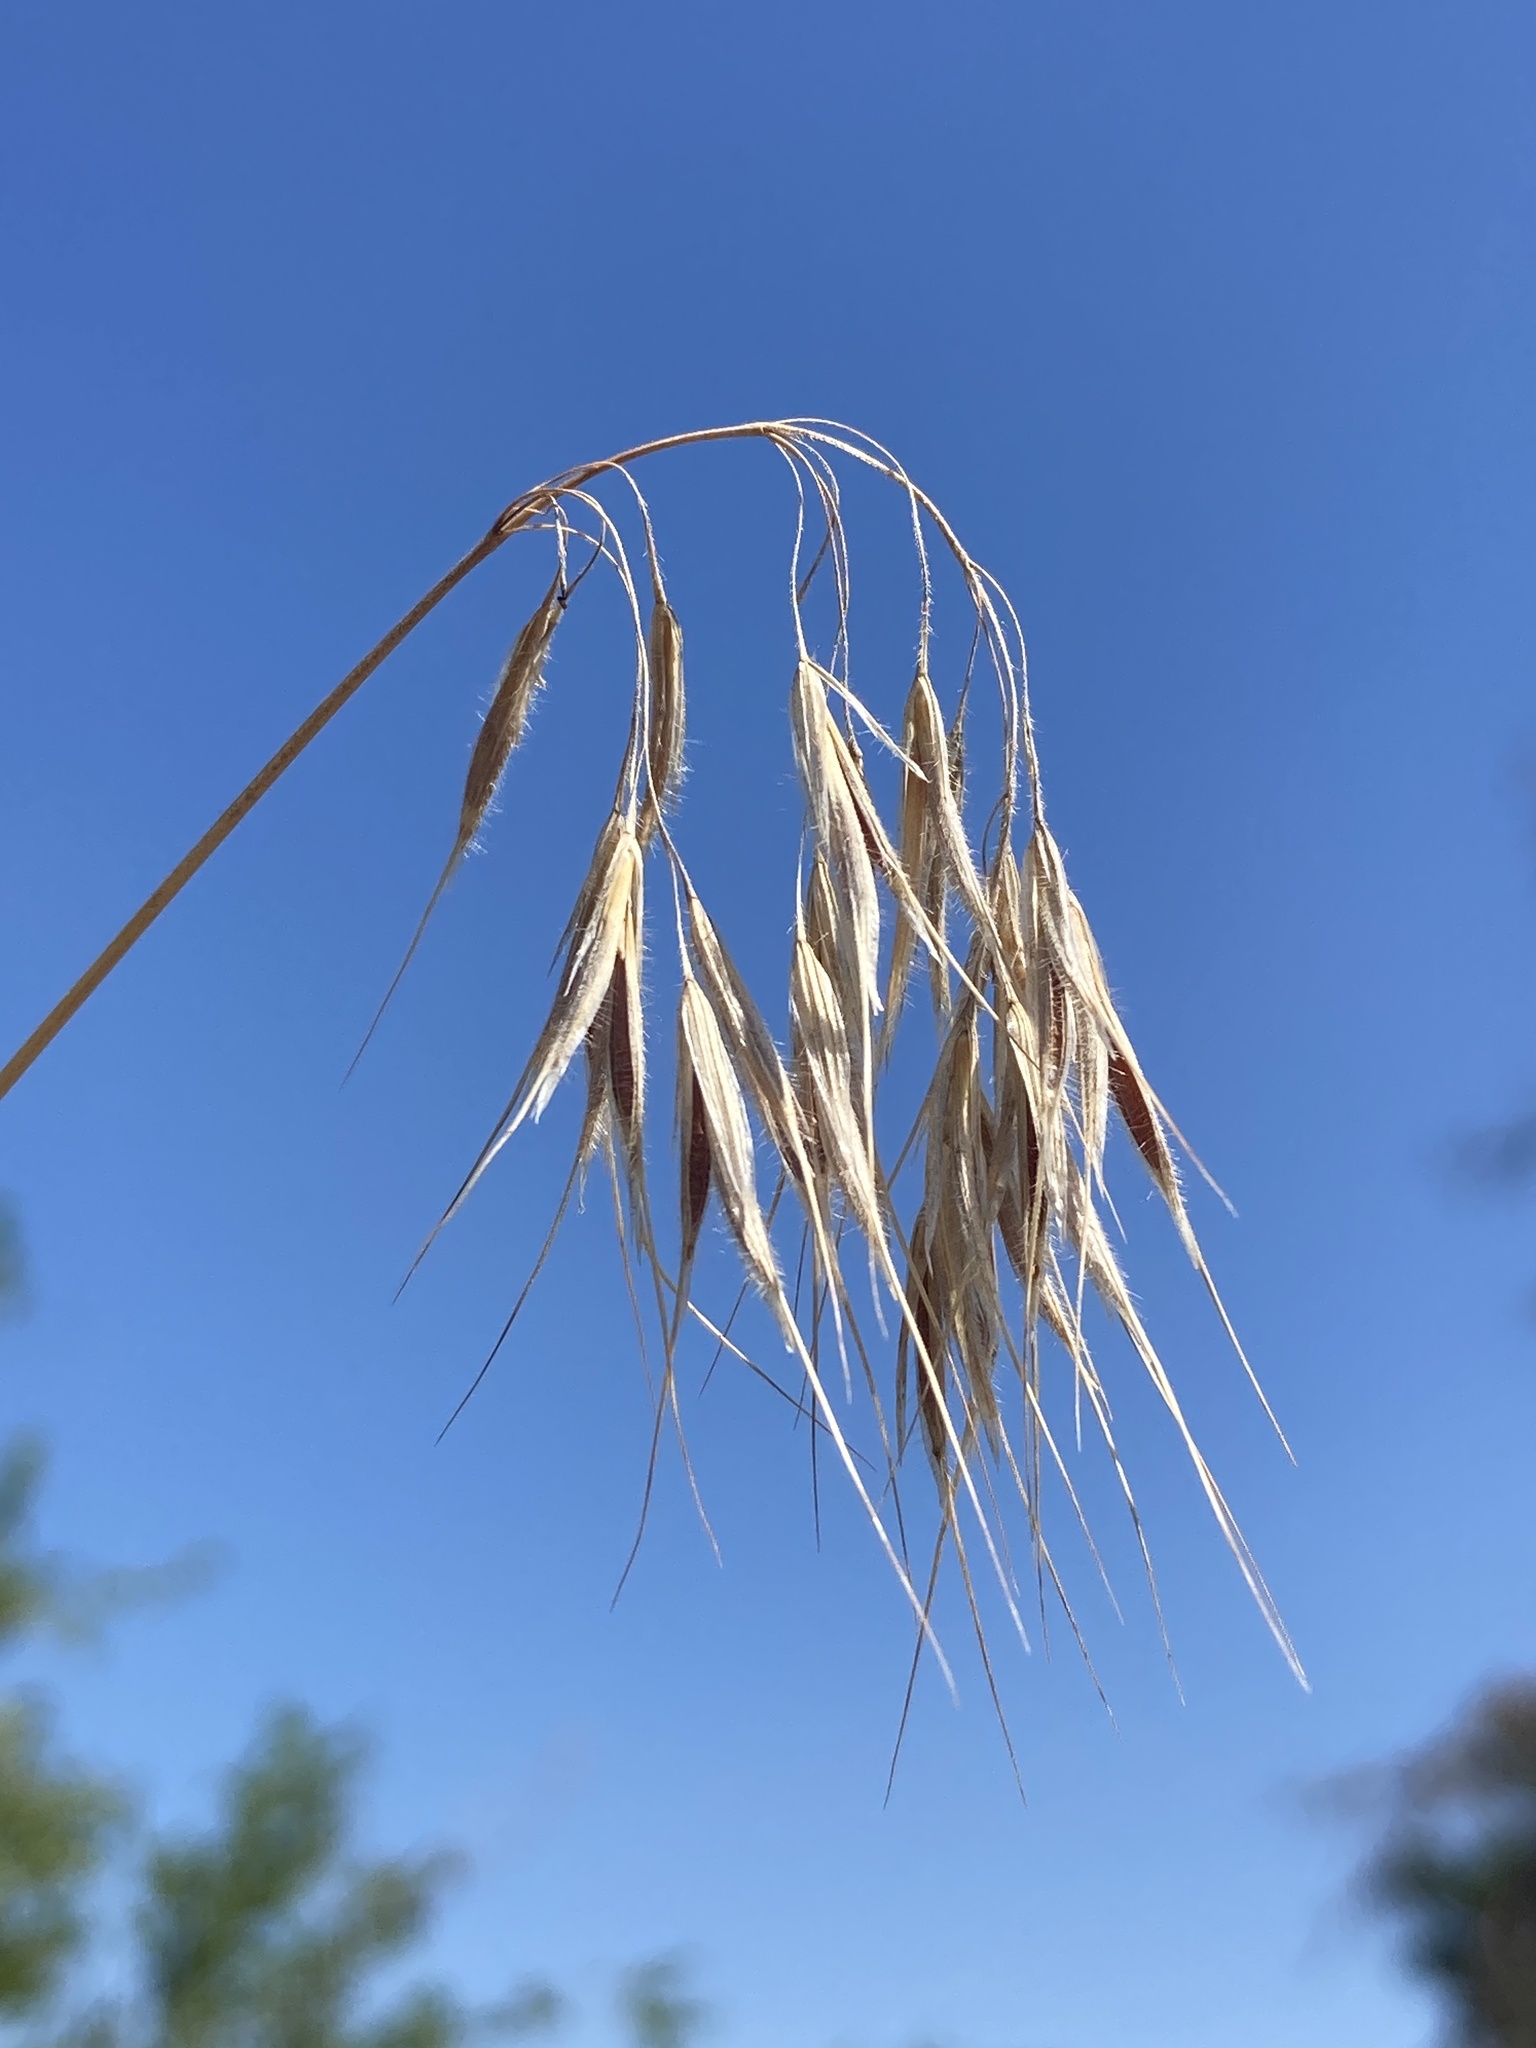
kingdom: Plantae
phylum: Tracheophyta
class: Liliopsida
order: Poales
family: Poaceae
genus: Bromus
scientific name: Bromus tectorum
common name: Cheatgrass
